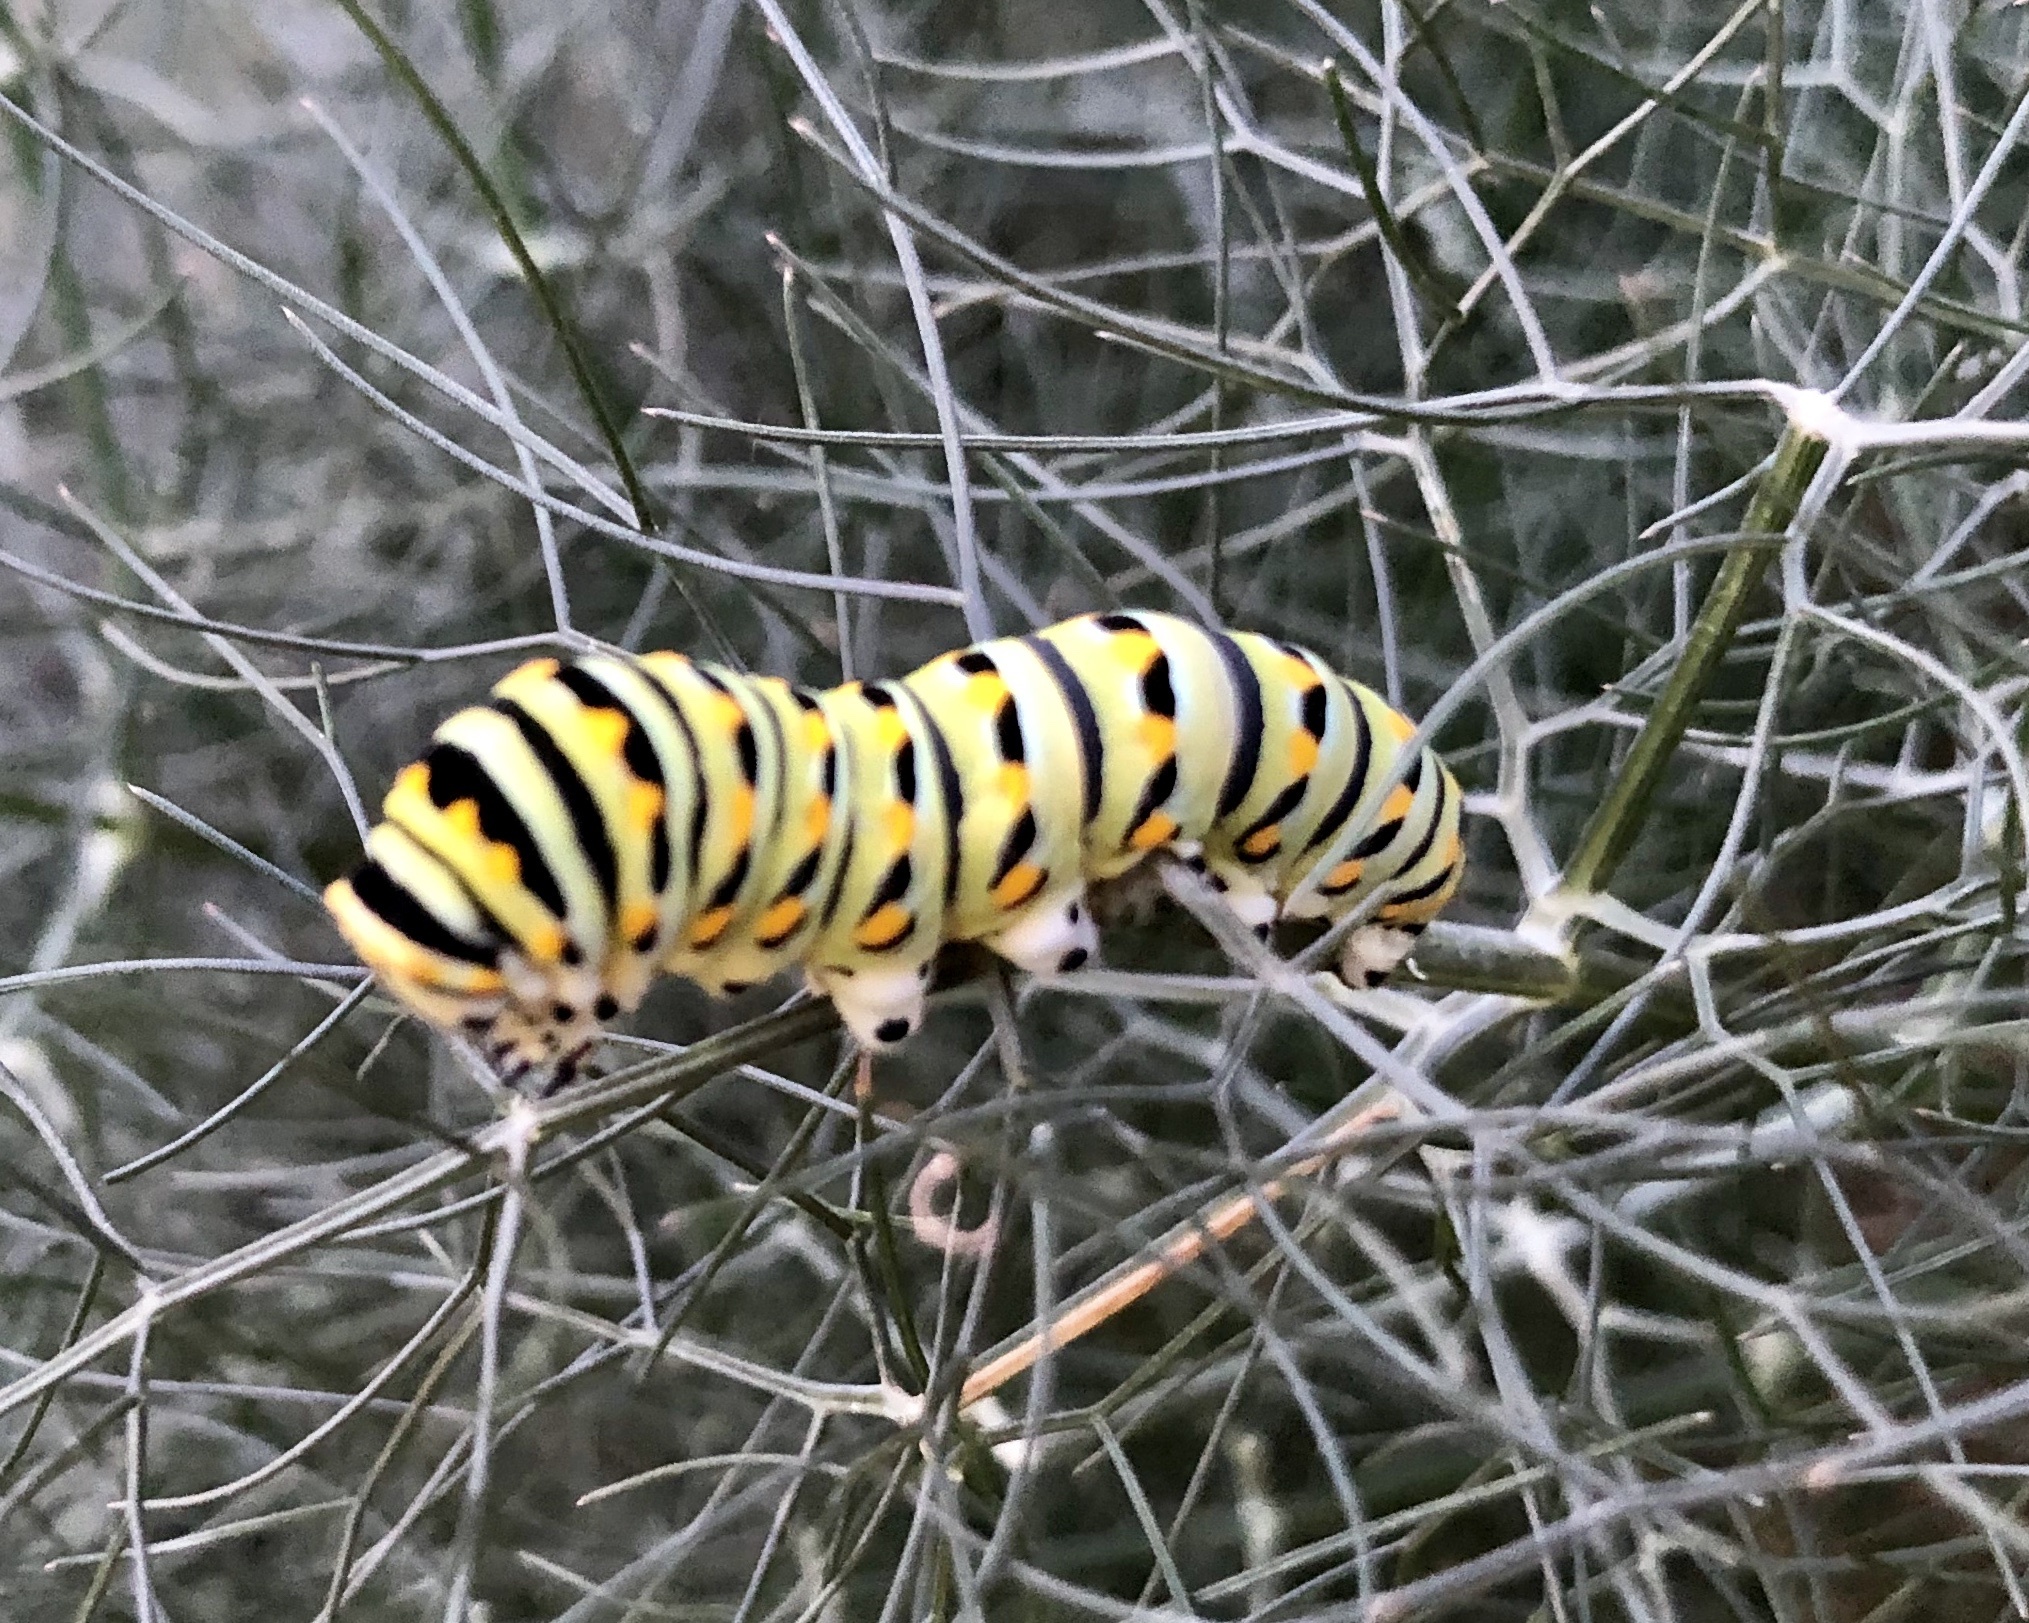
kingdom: Animalia
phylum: Arthropoda
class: Insecta
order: Lepidoptera
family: Papilionidae
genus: Papilio
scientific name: Papilio polyxenes
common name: Black swallowtail
